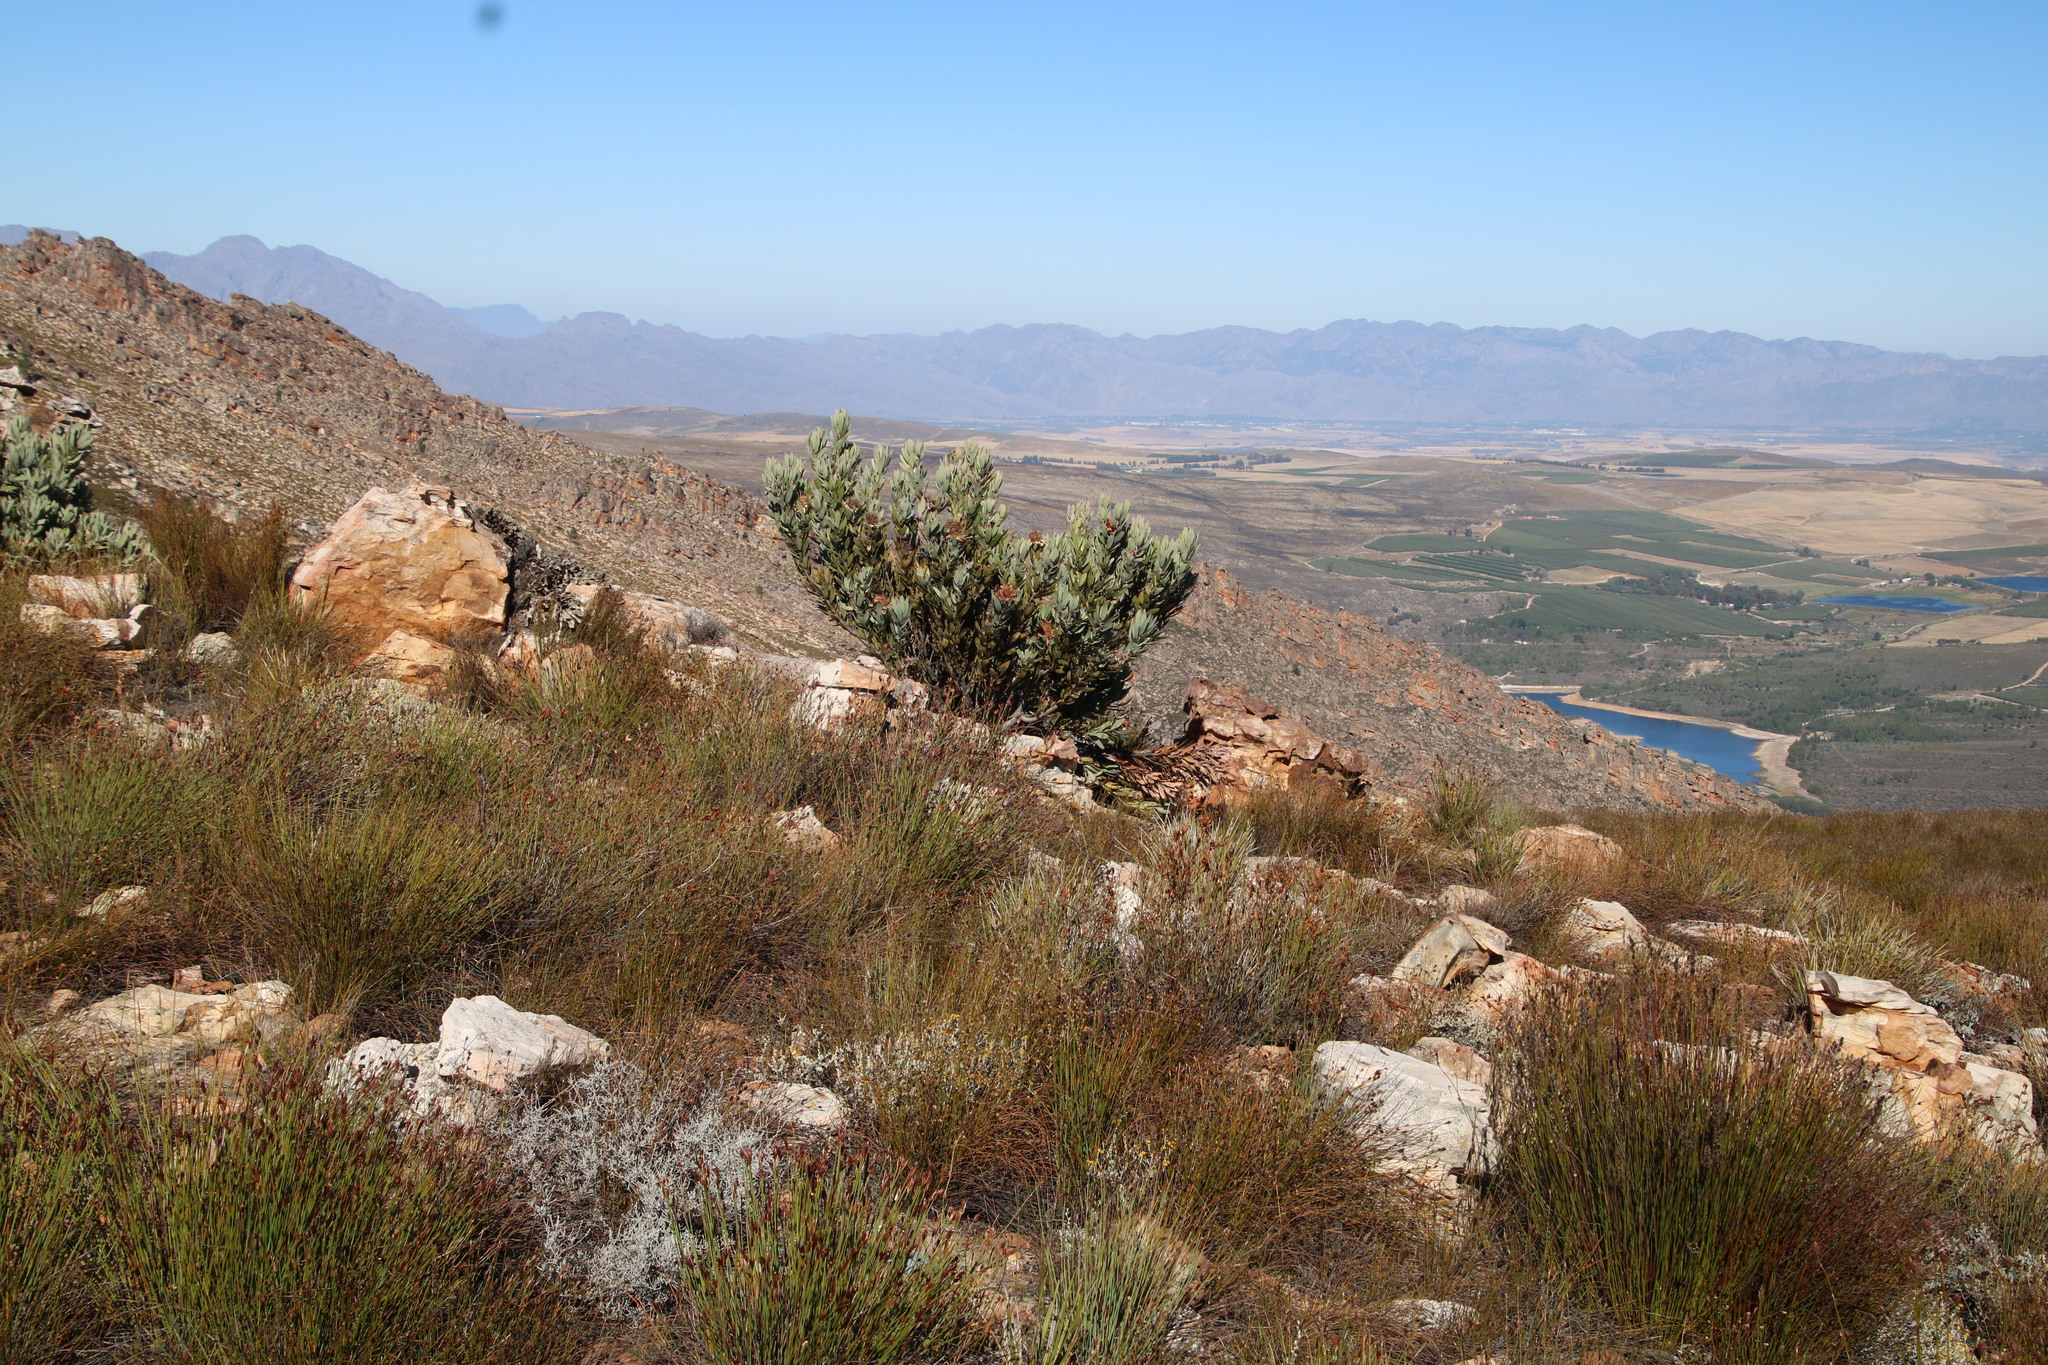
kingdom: Plantae
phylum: Tracheophyta
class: Magnoliopsida
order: Proteales
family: Proteaceae
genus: Protea
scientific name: Protea laurifolia
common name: Grey-leaf sugarbsh
